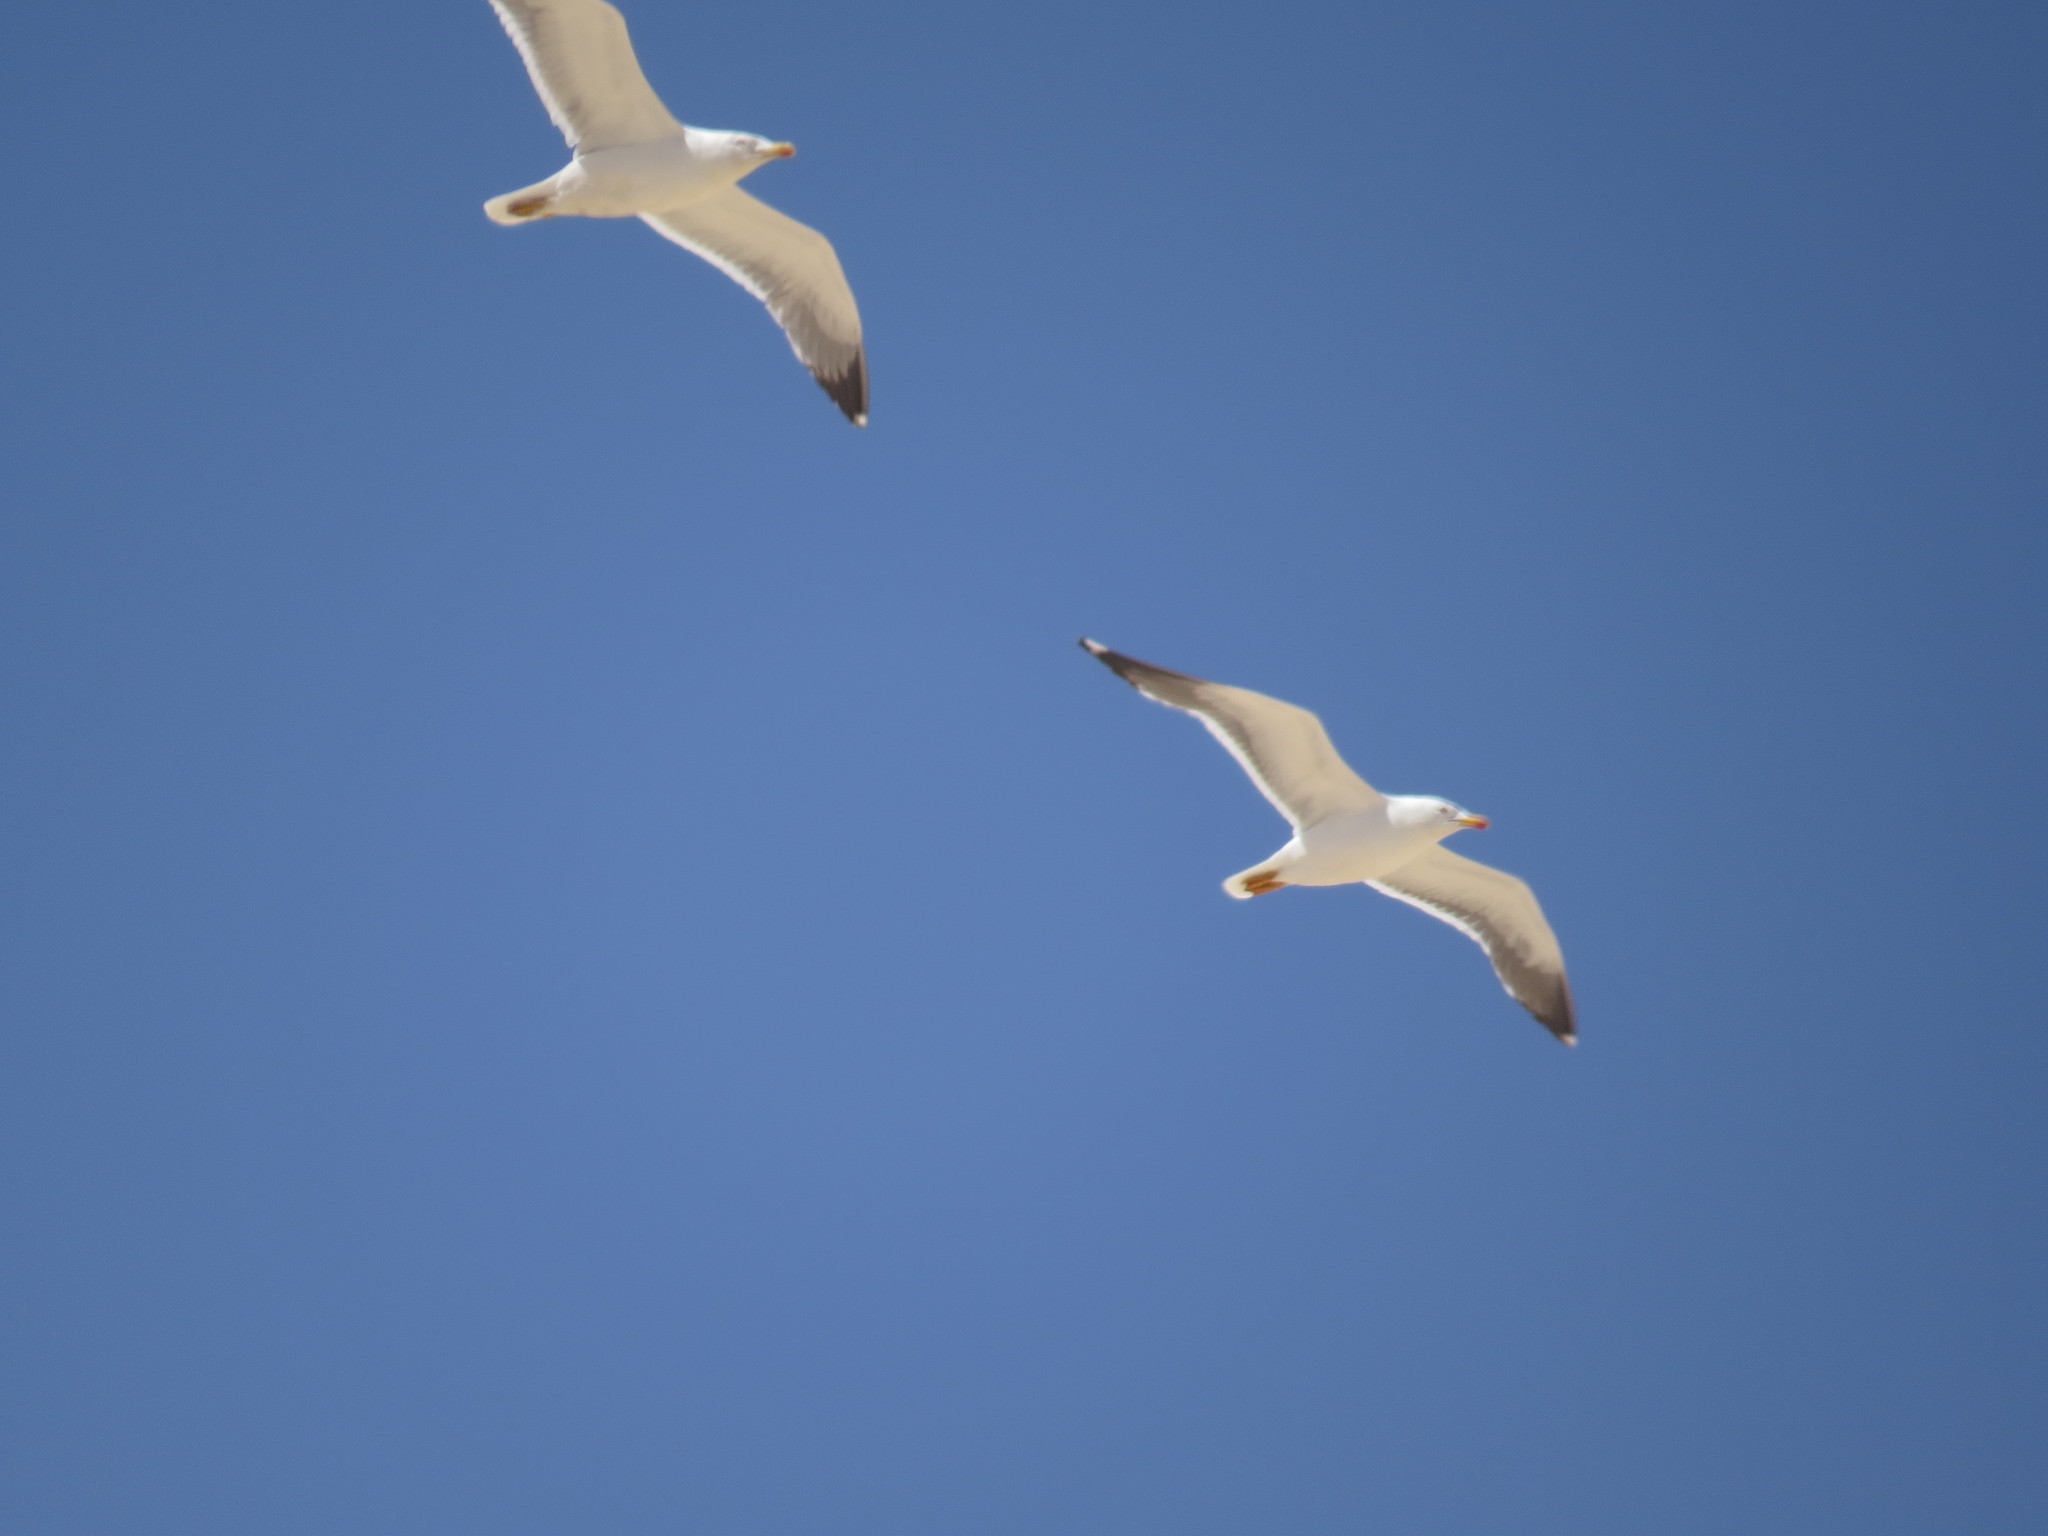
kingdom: Animalia
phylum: Chordata
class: Aves
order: Charadriiformes
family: Laridae
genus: Larus
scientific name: Larus fuscus
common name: Lesser black-backed gull
